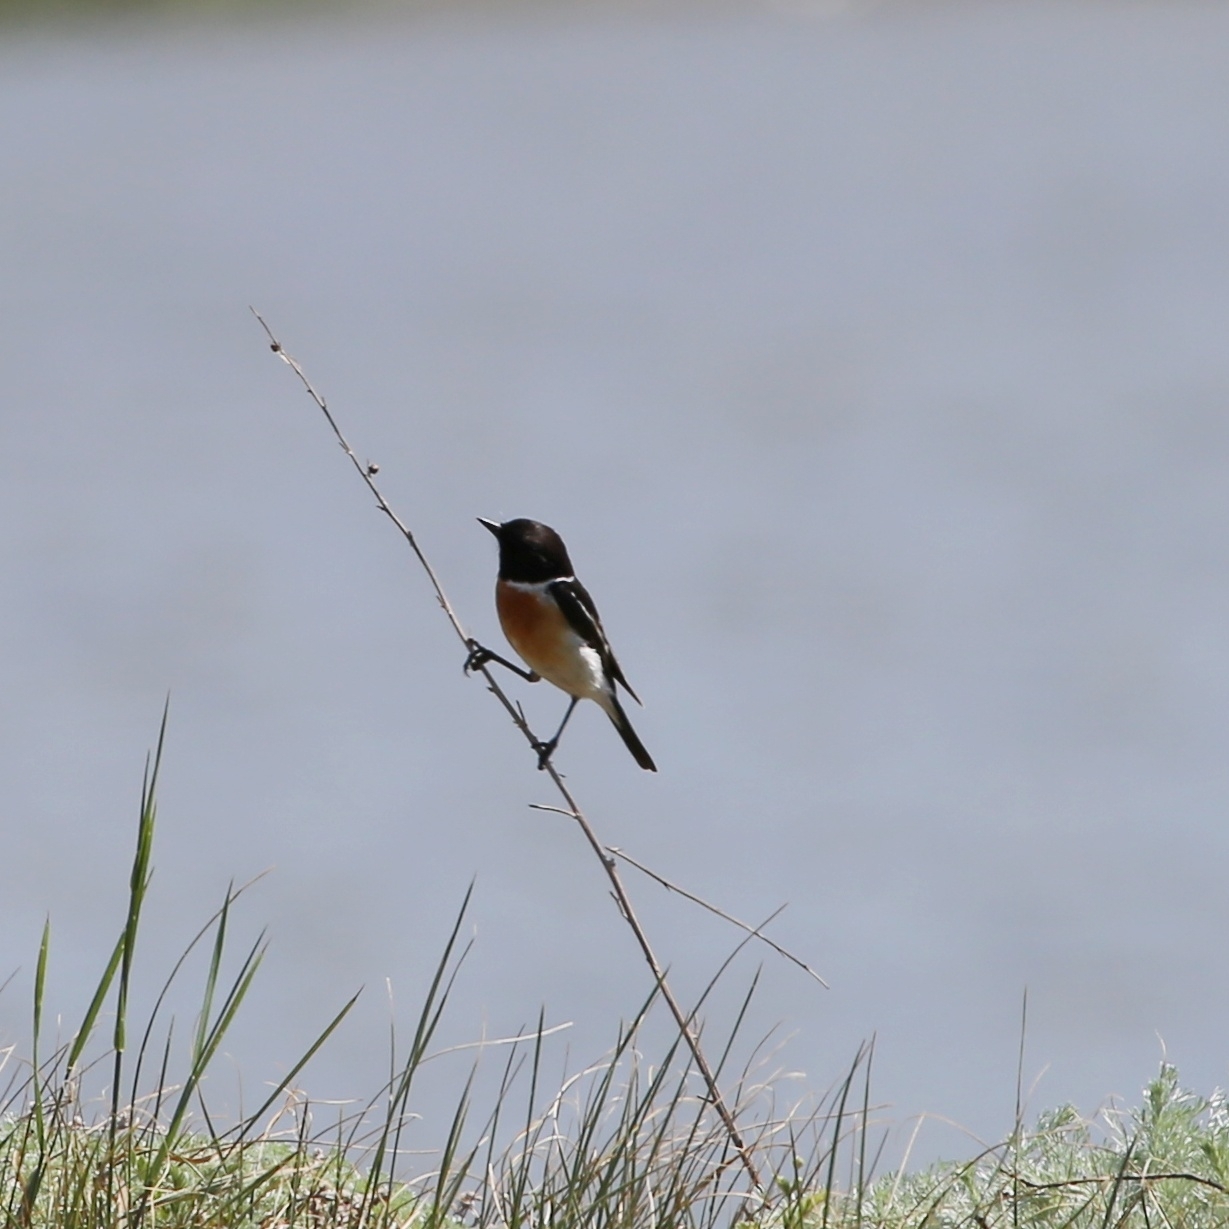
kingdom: Animalia
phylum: Chordata
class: Aves
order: Passeriformes
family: Muscicapidae
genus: Saxicola
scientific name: Saxicola maurus
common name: Siberian stonechat
